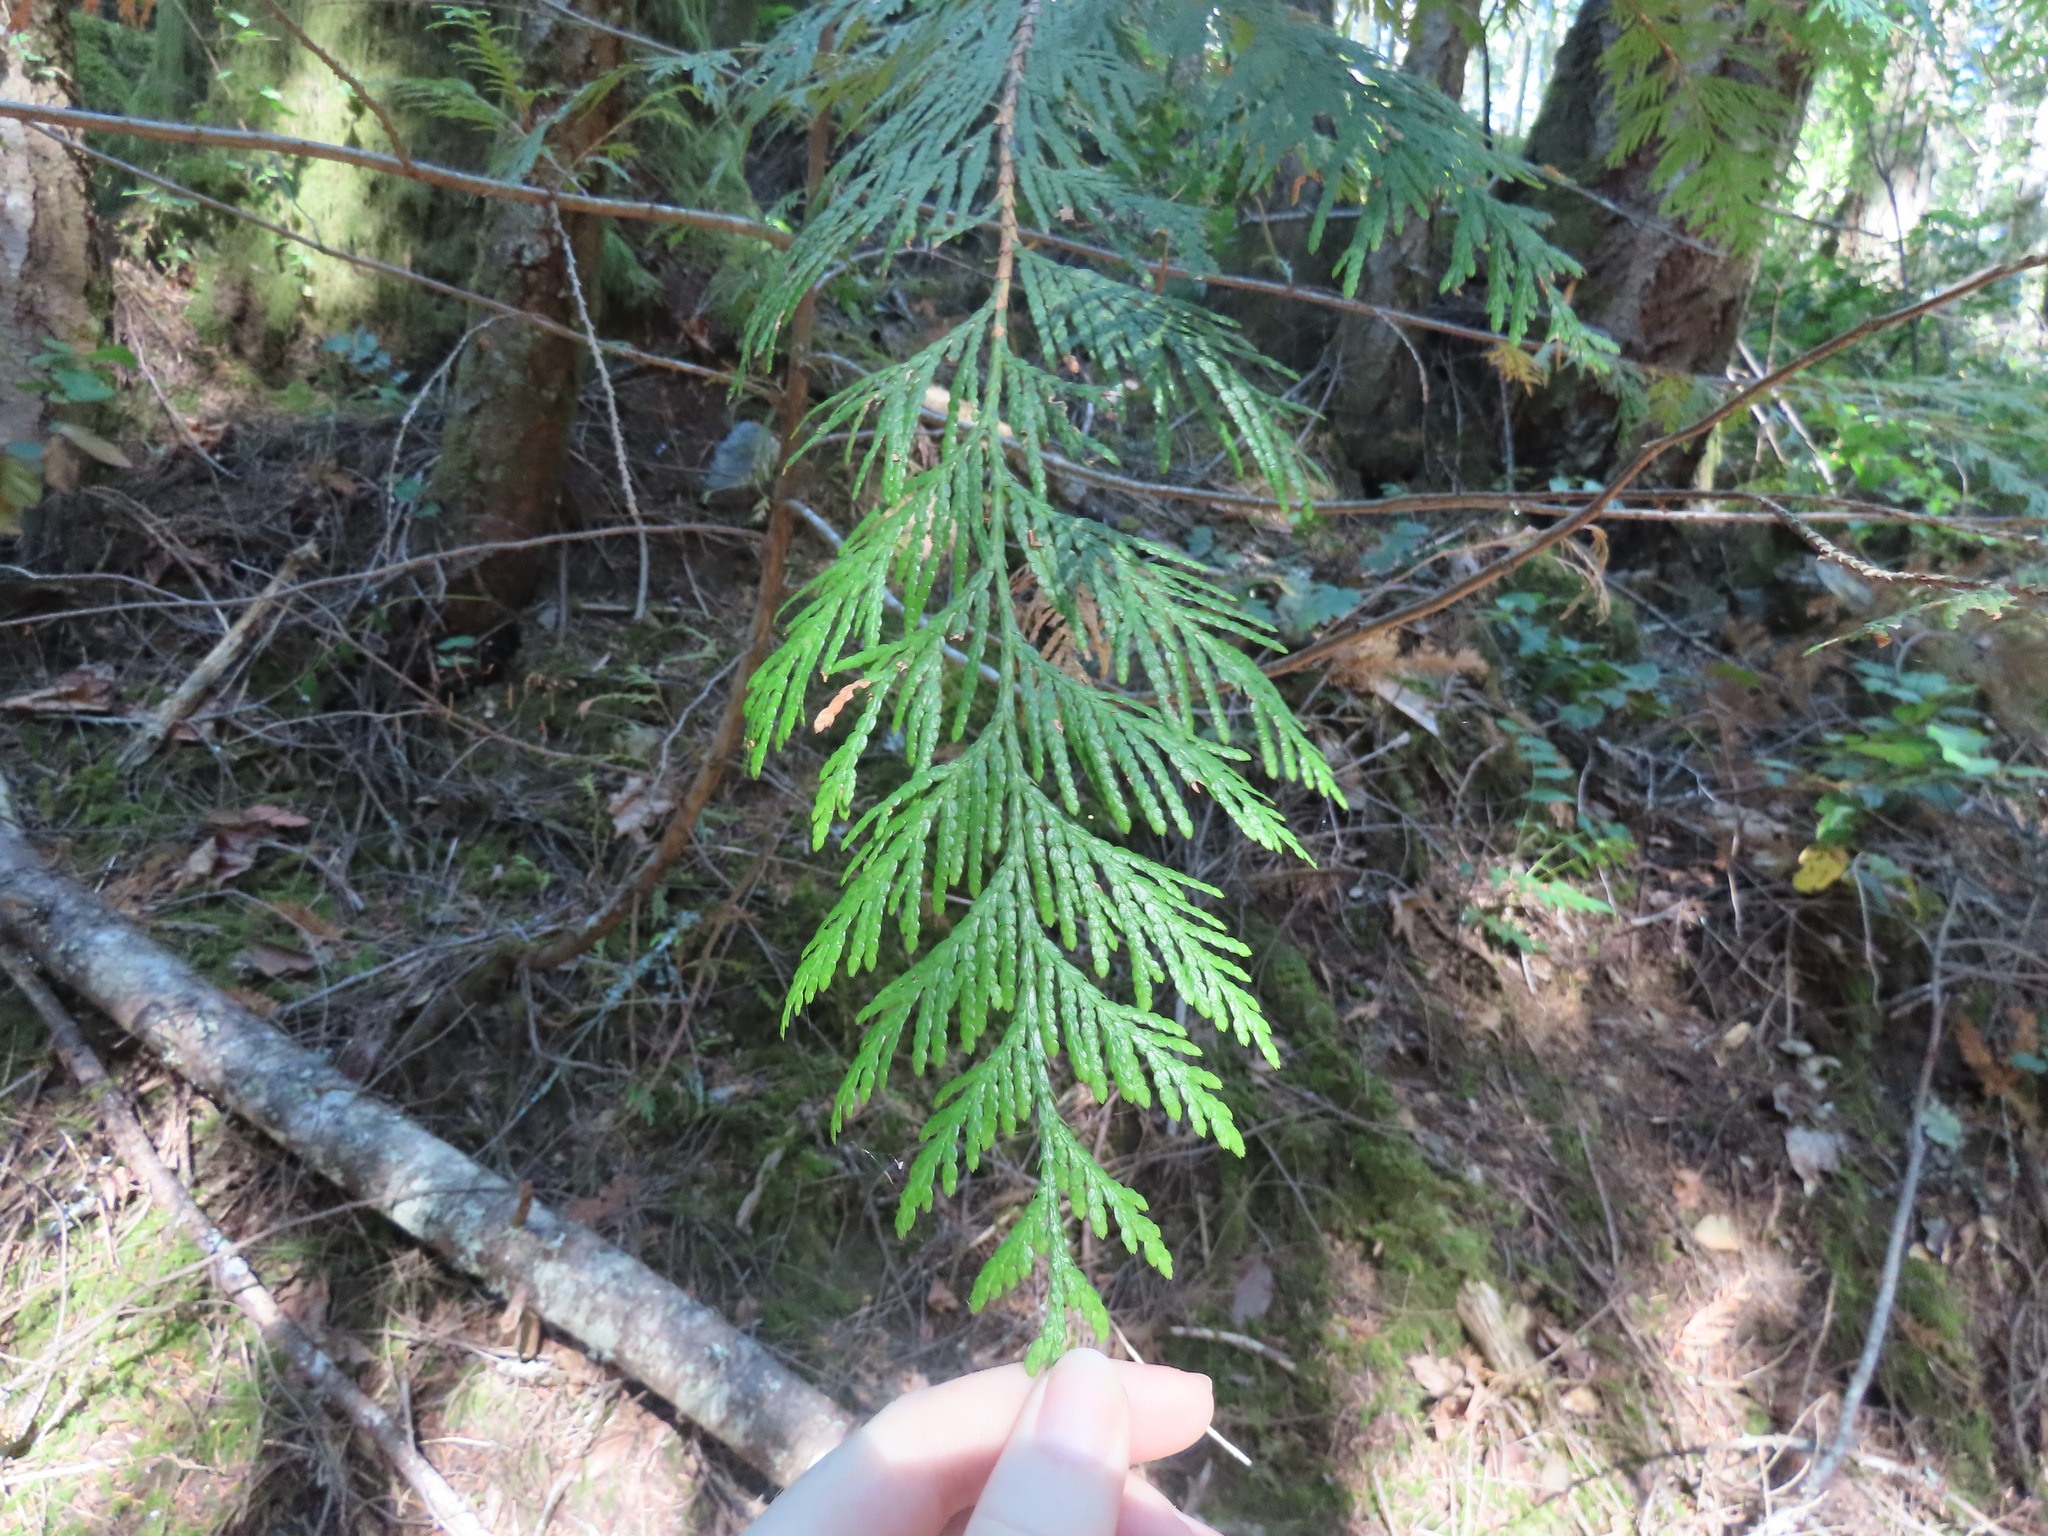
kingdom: Plantae
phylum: Tracheophyta
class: Pinopsida
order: Pinales
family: Cupressaceae
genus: Thuja
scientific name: Thuja plicata
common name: Western red-cedar
